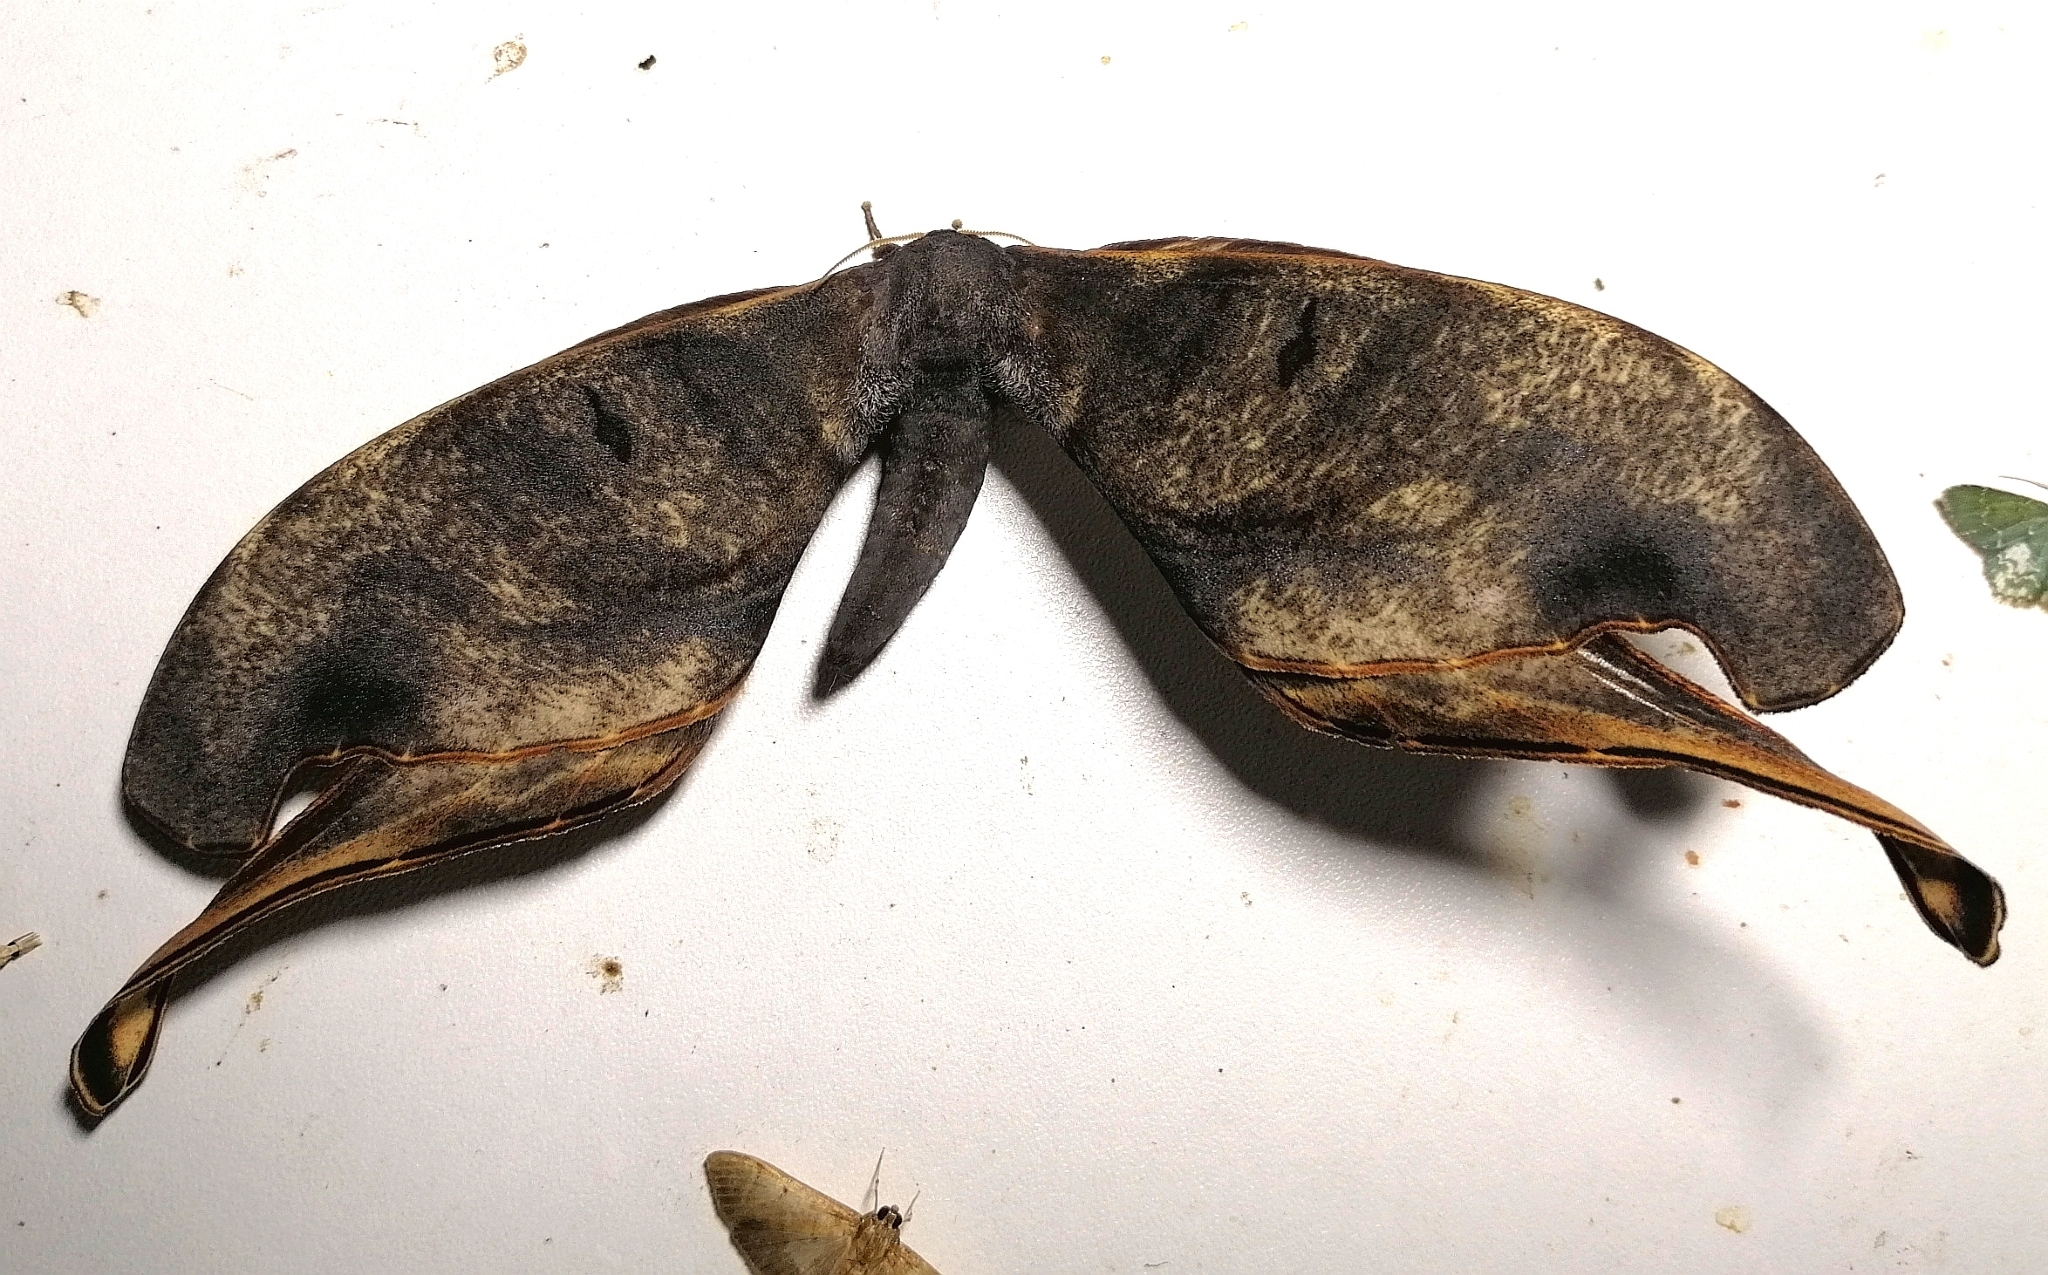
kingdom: Animalia
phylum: Arthropoda
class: Insecta
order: Lepidoptera
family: Saturniidae
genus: Paradaemonia
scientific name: Paradaemonia nycteris
